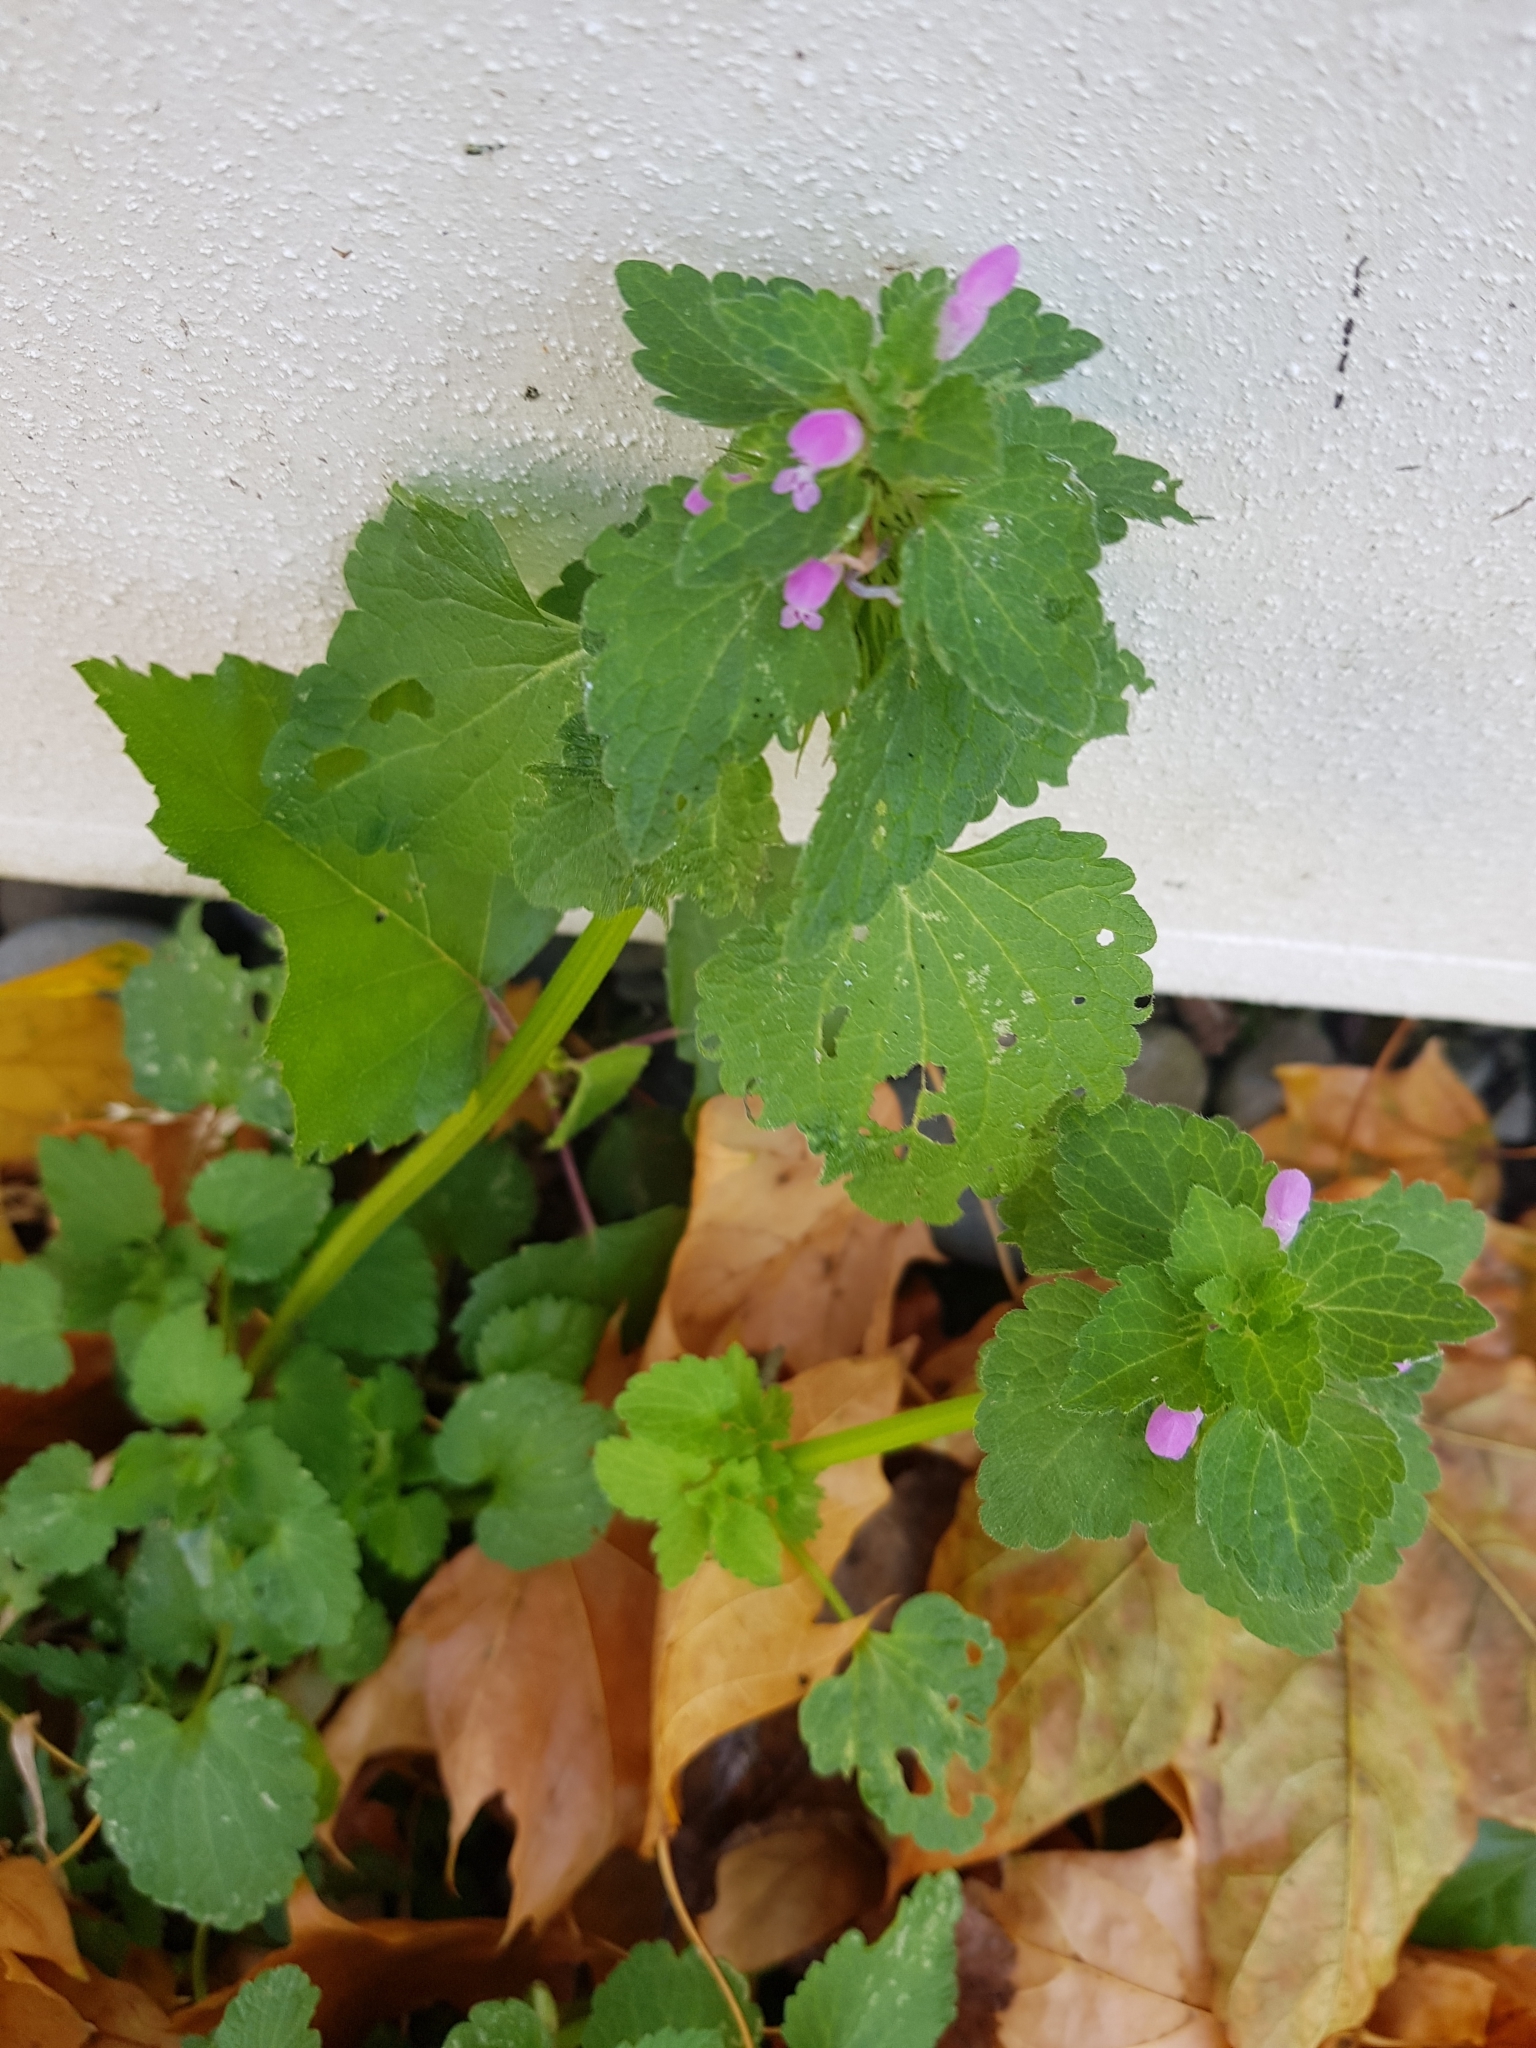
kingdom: Plantae
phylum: Tracheophyta
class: Magnoliopsida
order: Lamiales
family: Lamiaceae
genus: Lamium
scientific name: Lamium purpureum
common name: Red dead-nettle
